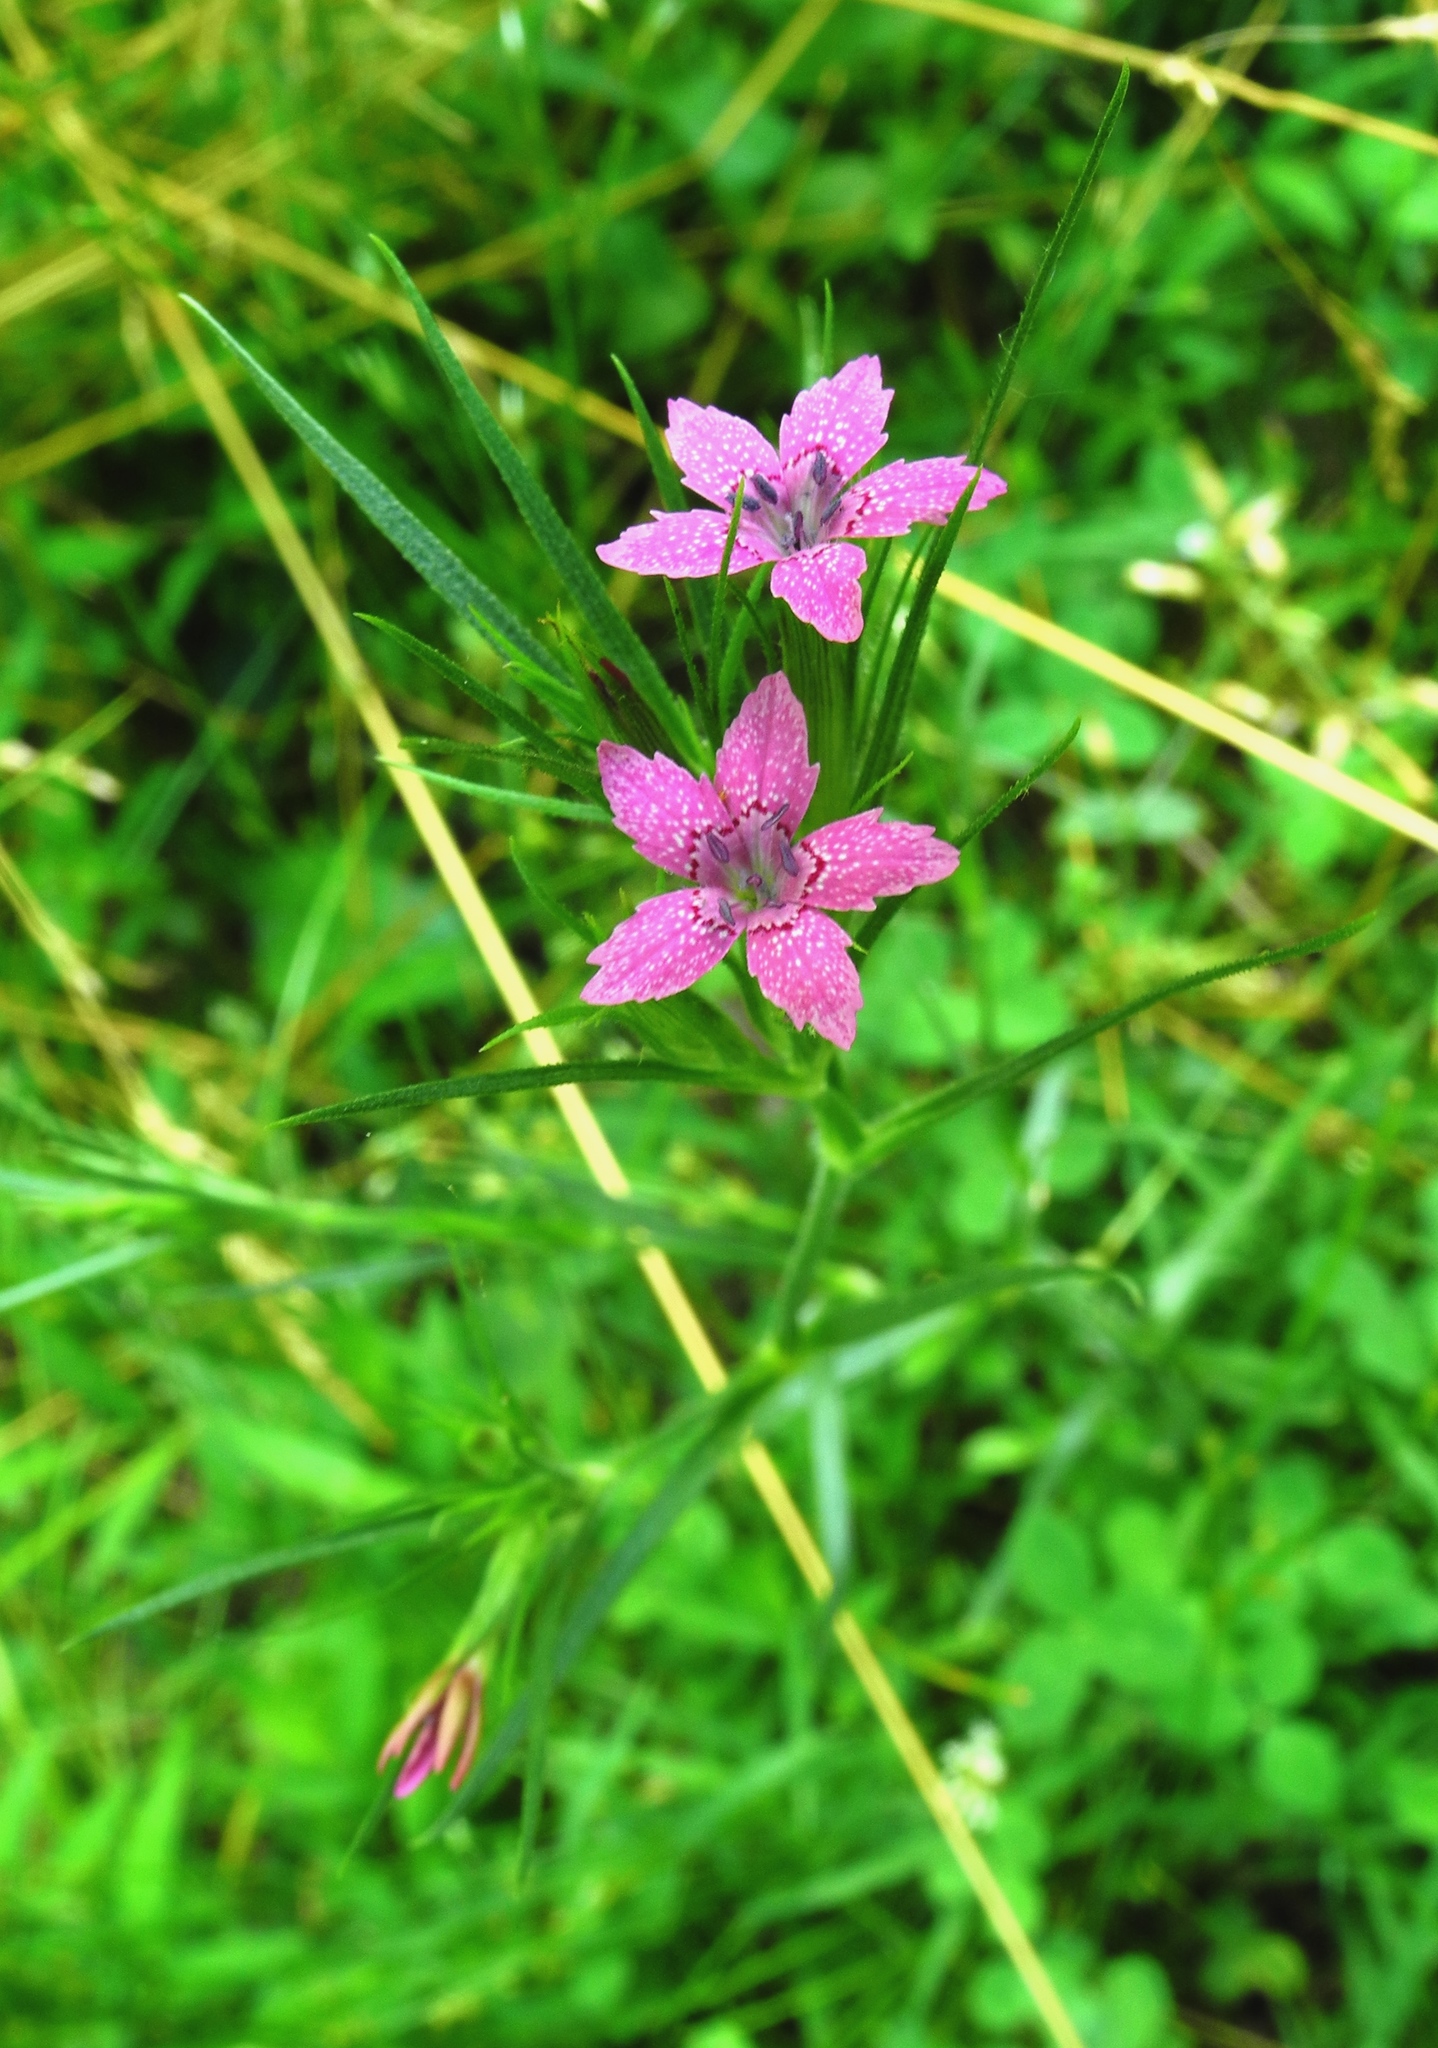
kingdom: Plantae
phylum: Tracheophyta
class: Magnoliopsida
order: Caryophyllales
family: Caryophyllaceae
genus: Dianthus
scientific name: Dianthus armeria
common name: Deptford pink
